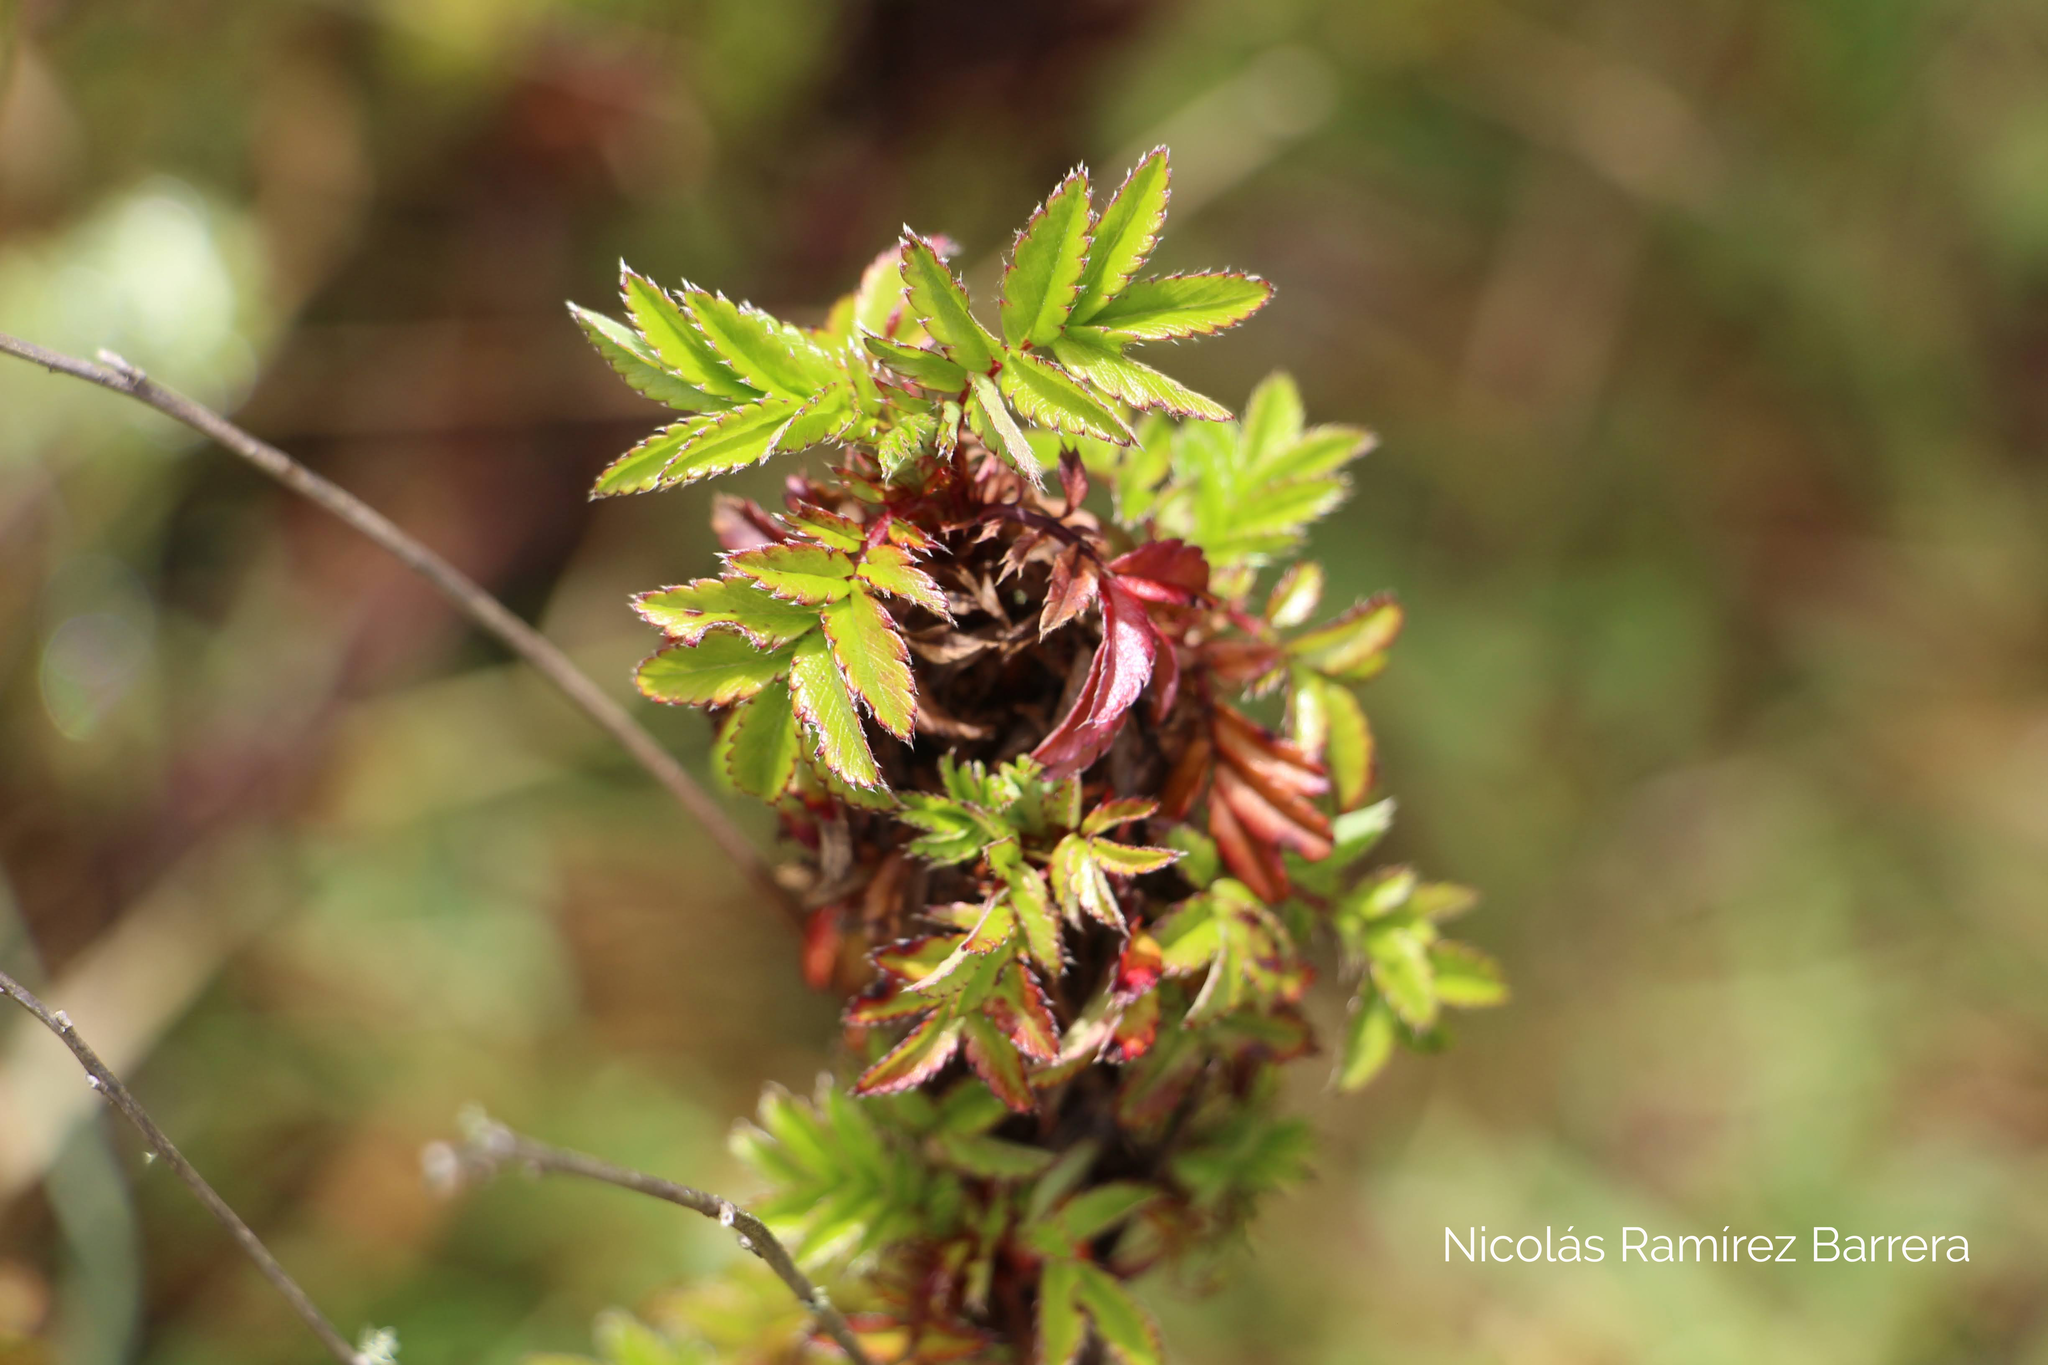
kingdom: Plantae
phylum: Tracheophyta
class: Magnoliopsida
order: Rosales
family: Rosaceae
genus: Acaena
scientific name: Acaena elongata
